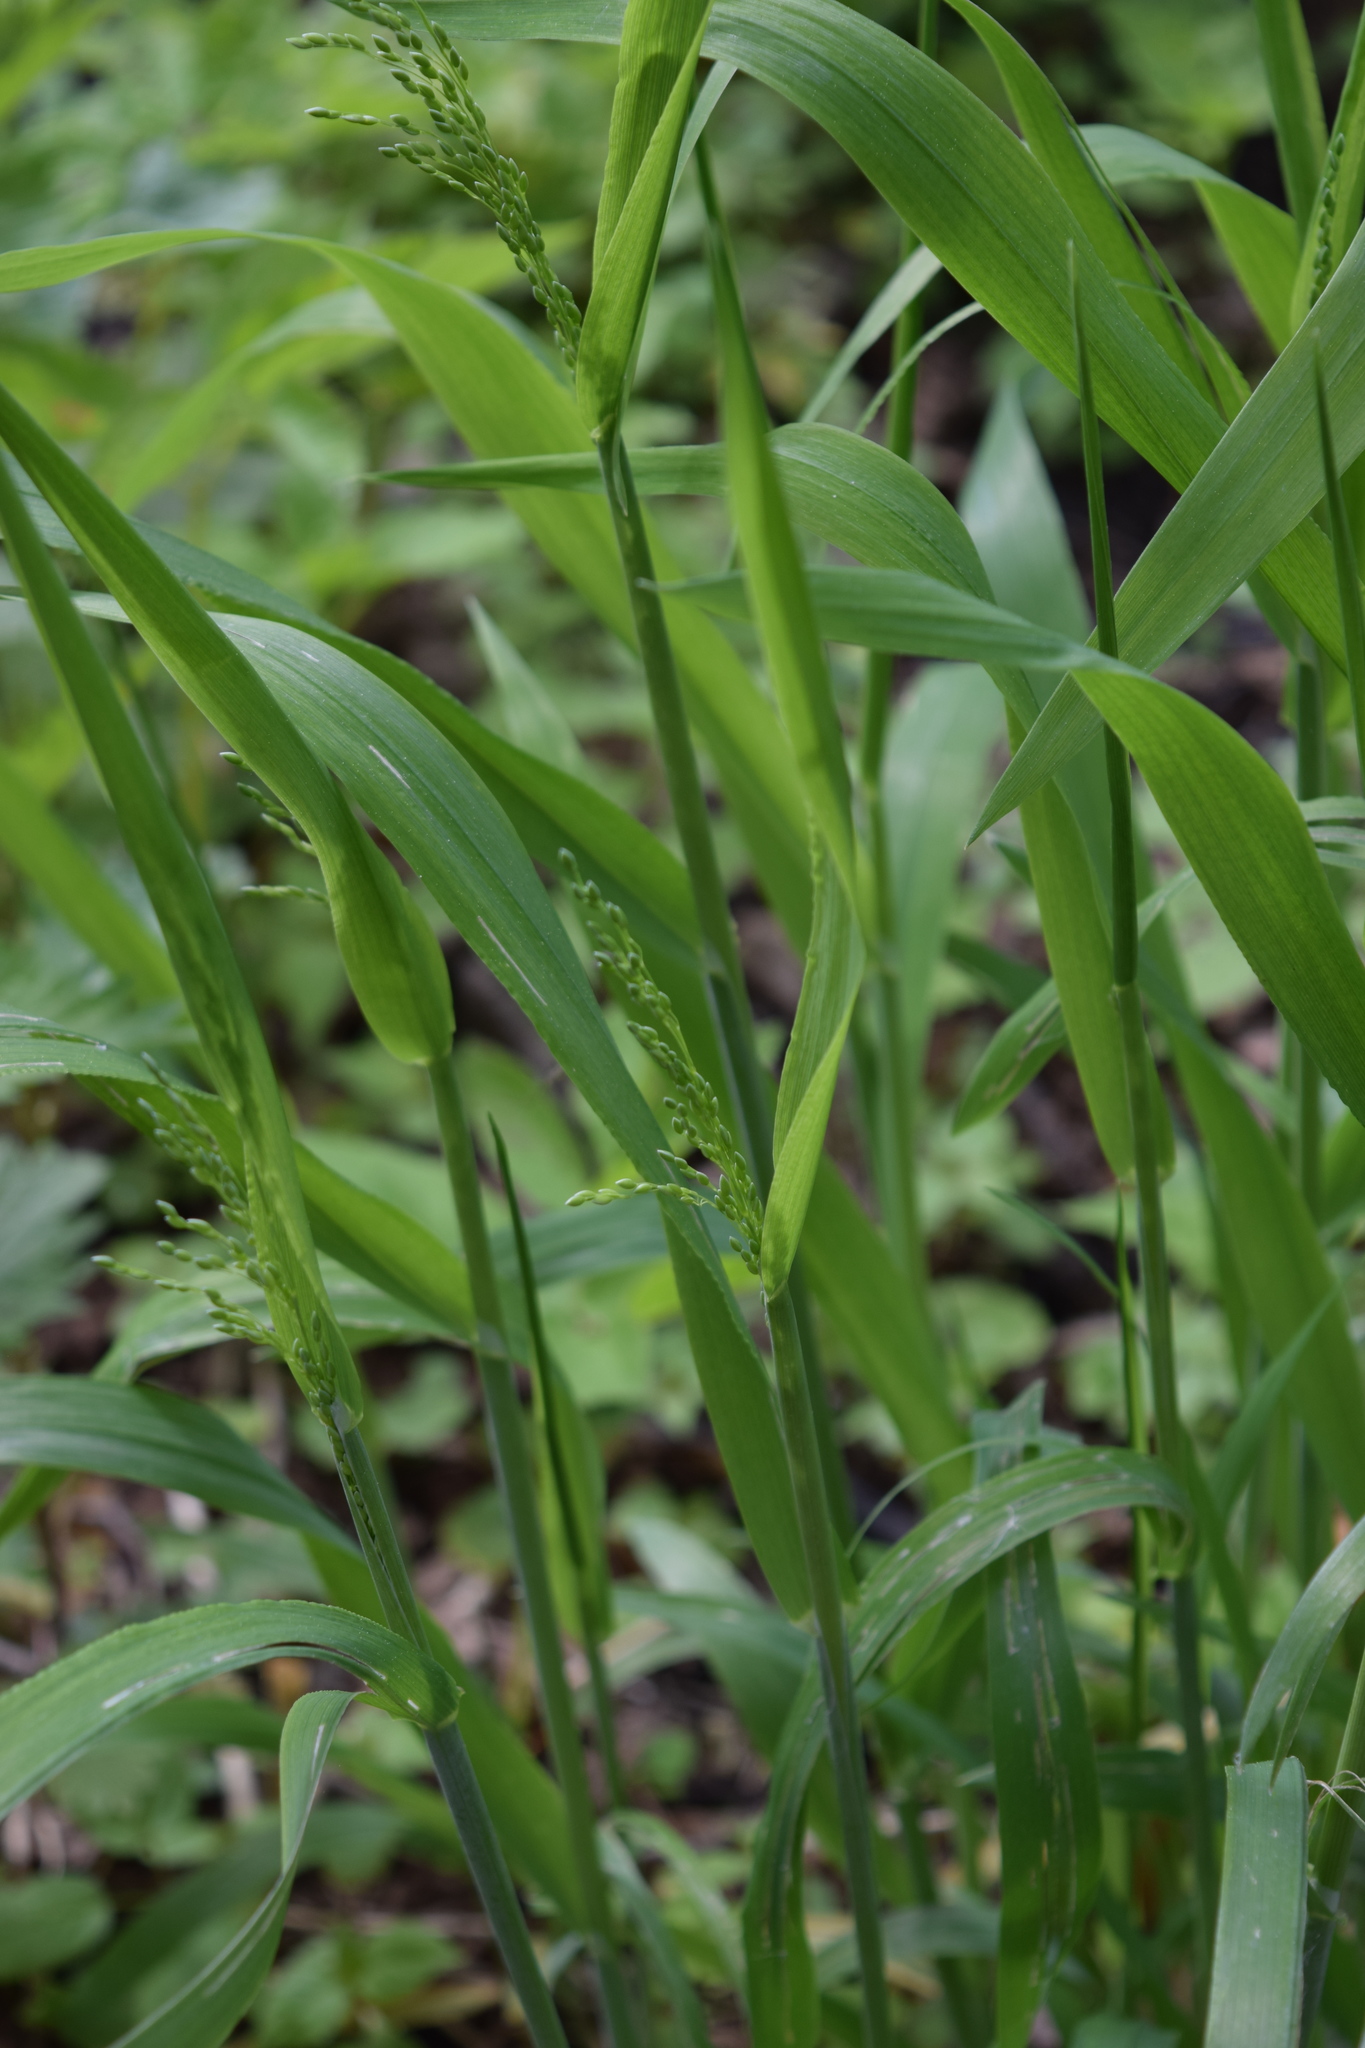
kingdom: Plantae
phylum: Tracheophyta
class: Liliopsida
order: Poales
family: Poaceae
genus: Milium
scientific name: Milium effusum
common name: Wood millet
